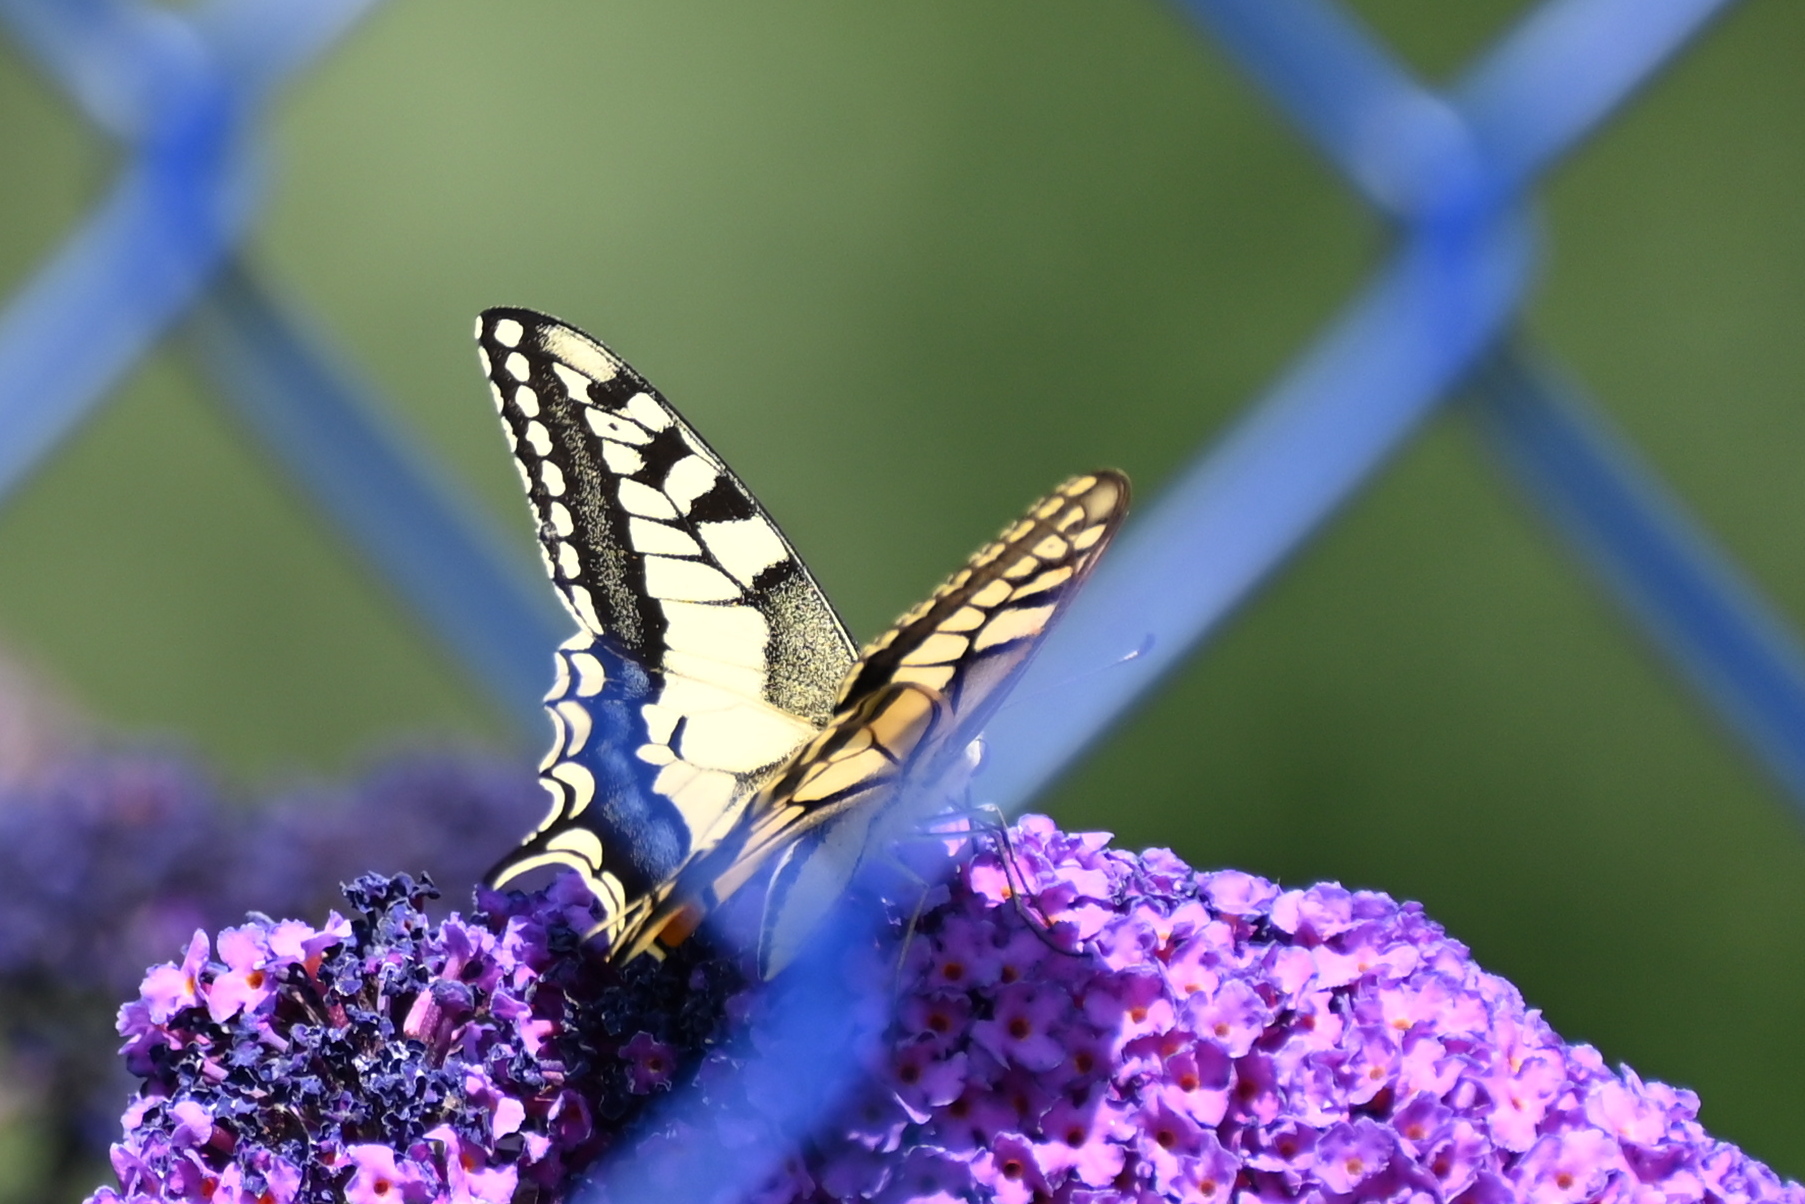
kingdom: Animalia
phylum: Arthropoda
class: Insecta
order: Lepidoptera
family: Papilionidae
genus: Papilio
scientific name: Papilio machaon
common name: Swallowtail
